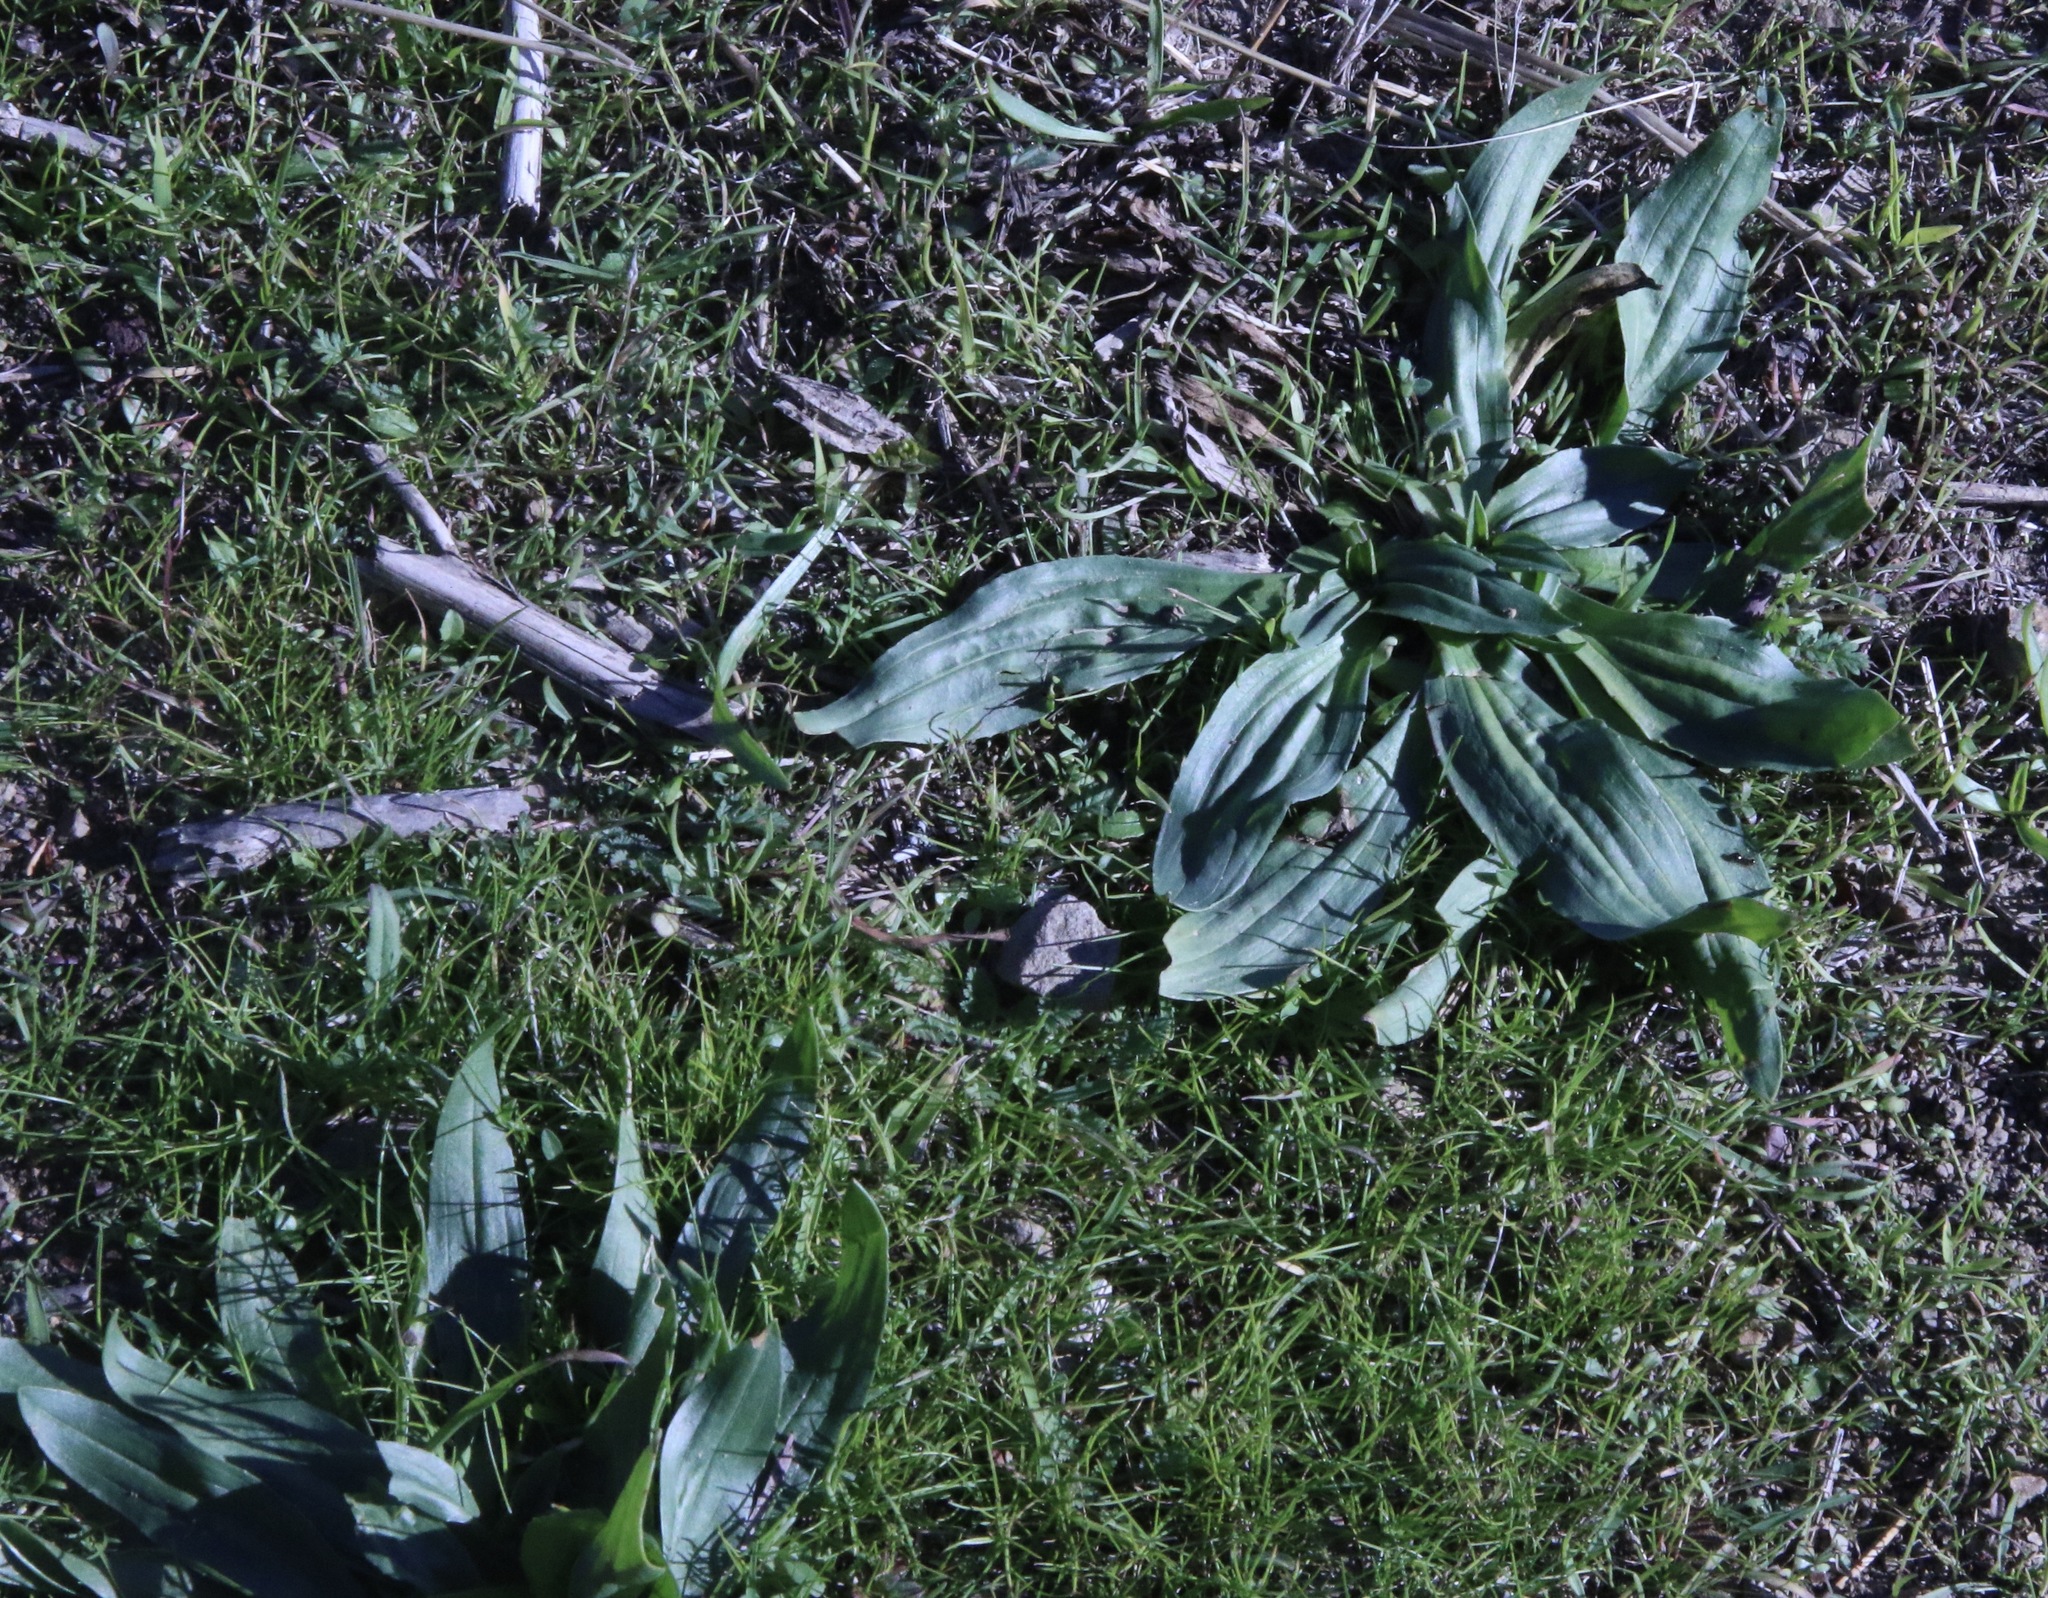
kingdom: Plantae
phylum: Tracheophyta
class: Magnoliopsida
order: Lamiales
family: Plantaginaceae
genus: Plantago
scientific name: Plantago lanceolata
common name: Ribwort plantain
